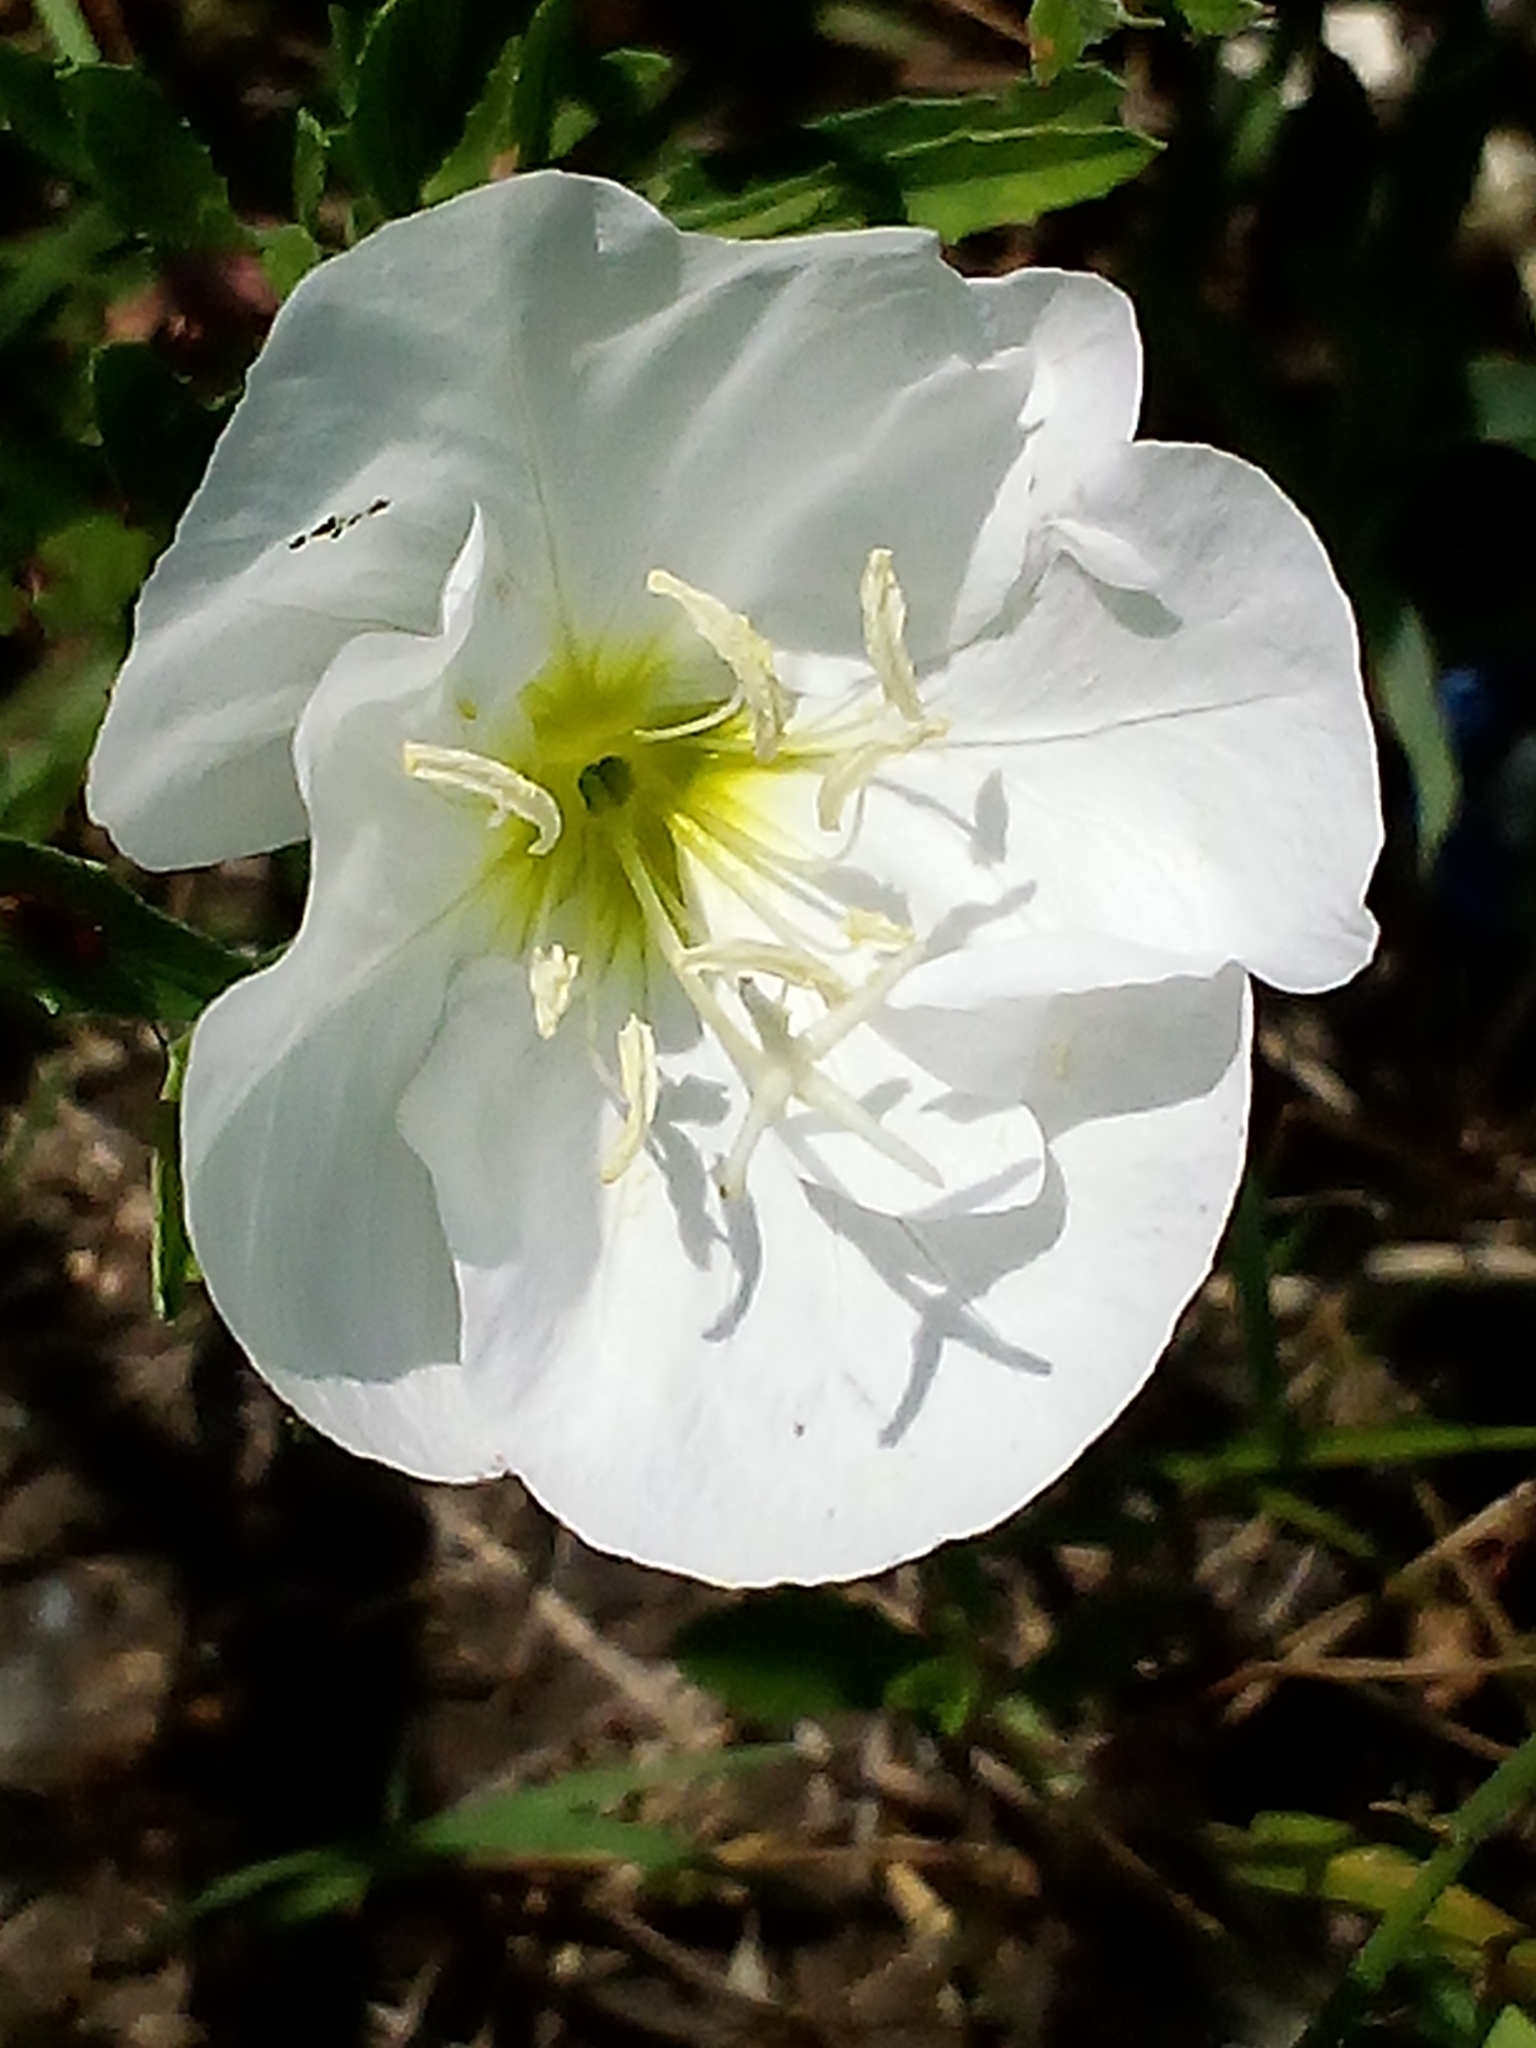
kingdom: Plantae
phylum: Tracheophyta
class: Magnoliopsida
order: Myrtales
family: Onagraceae
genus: Oenothera
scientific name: Oenothera speciosa
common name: White evening-primrose
